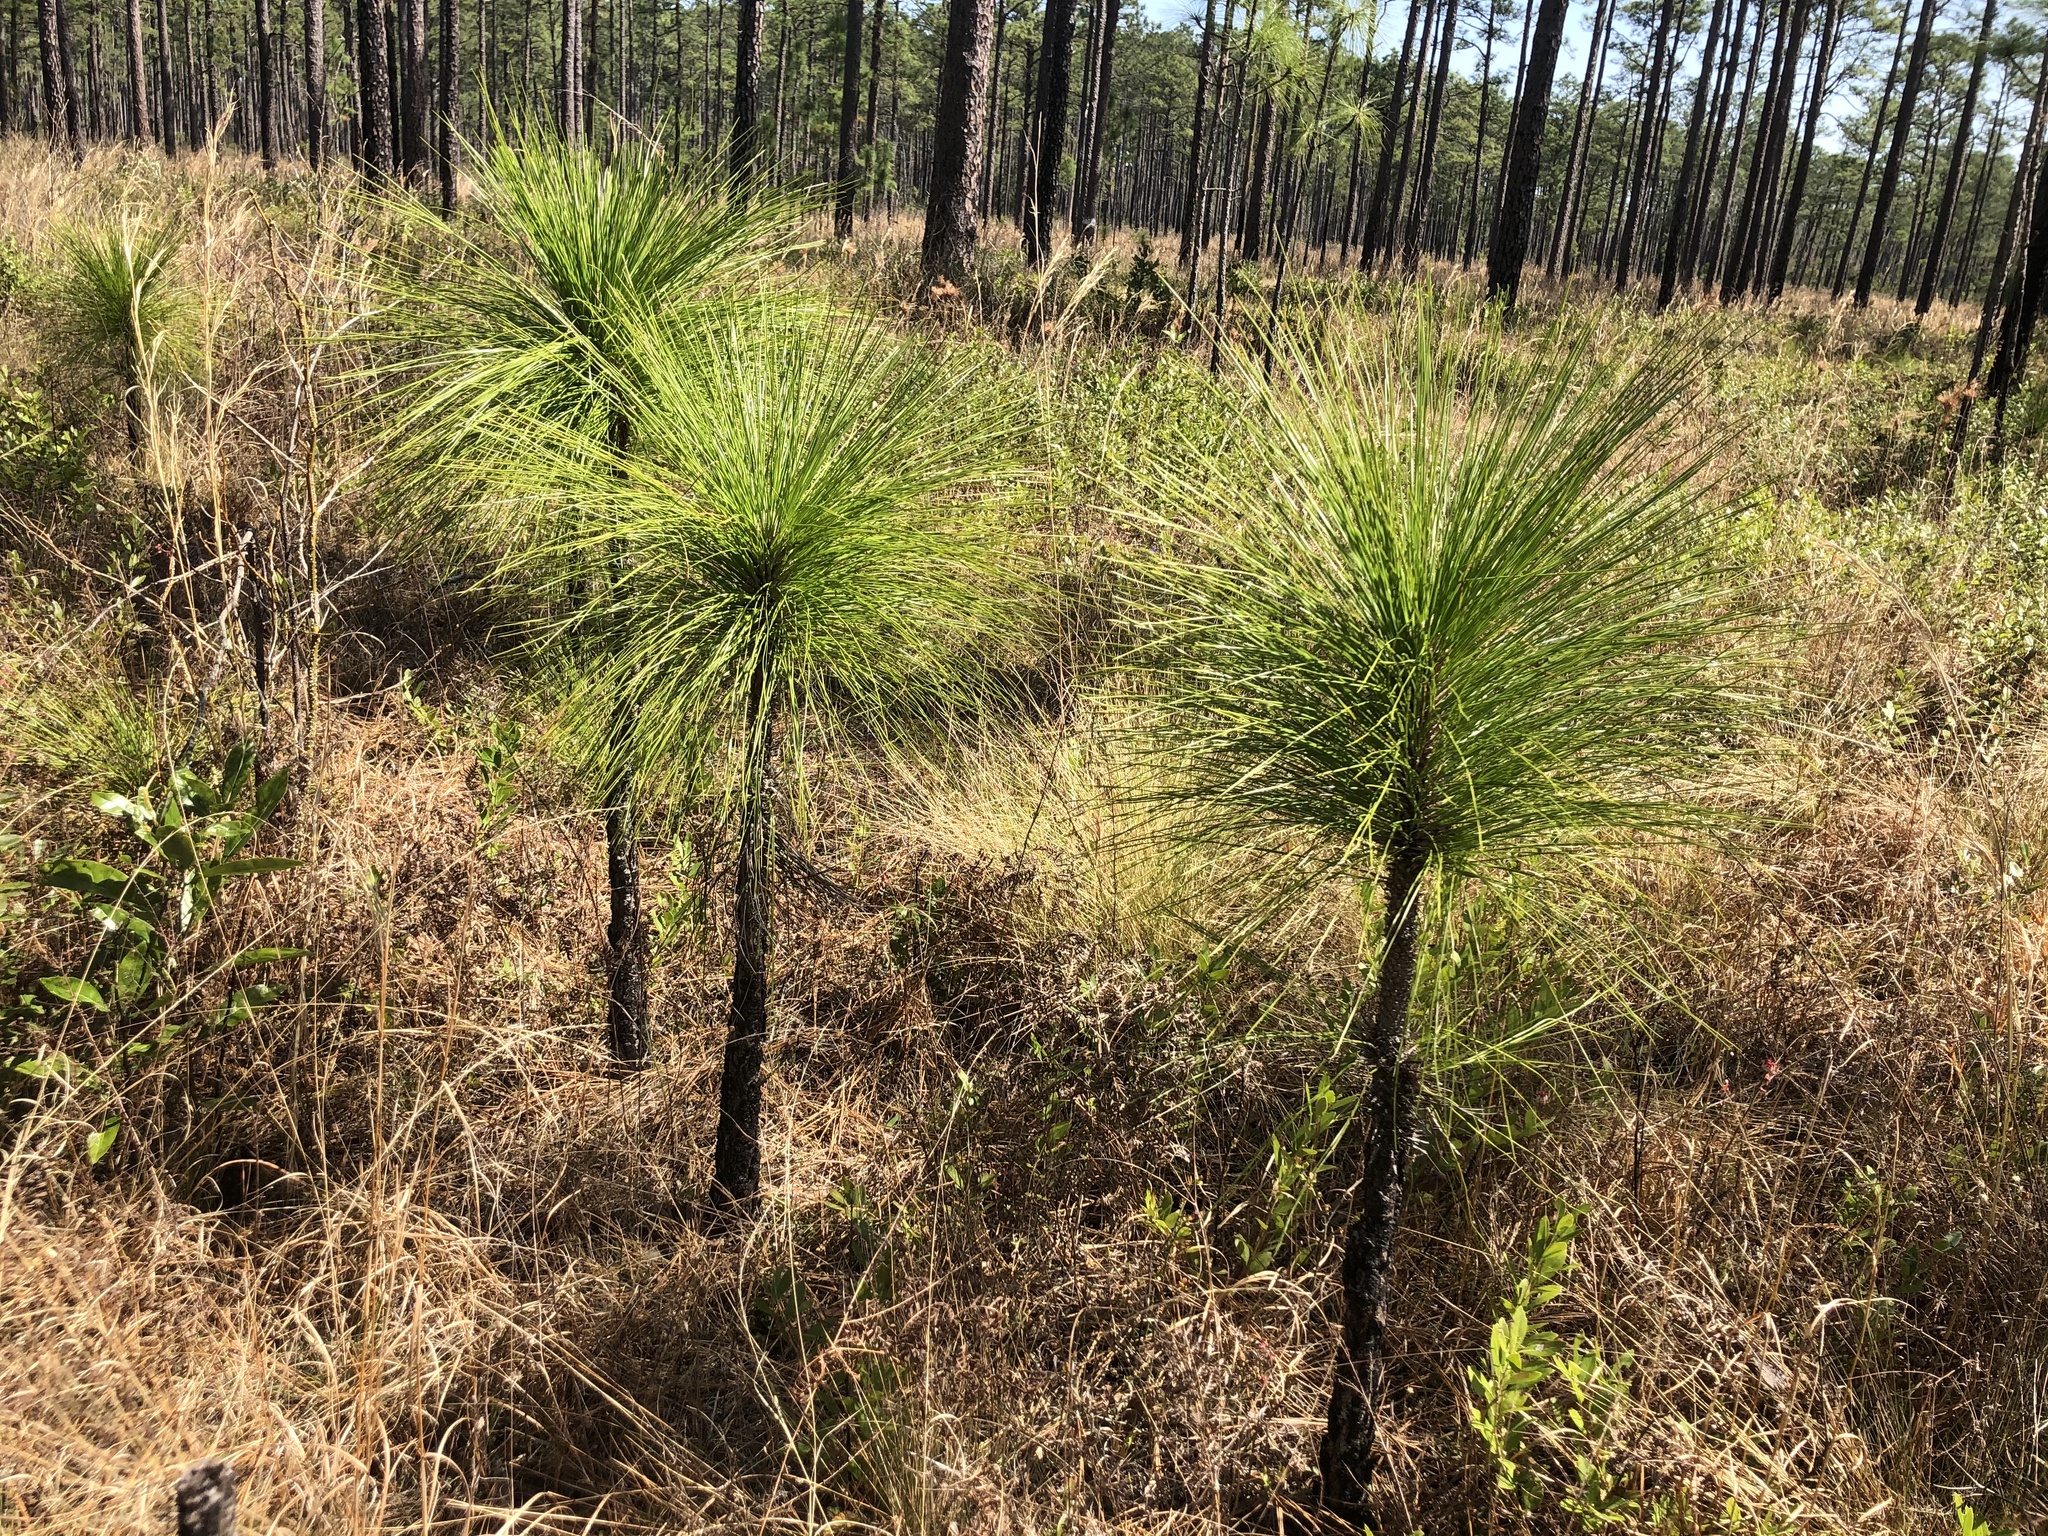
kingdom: Plantae
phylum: Tracheophyta
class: Pinopsida
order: Pinales
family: Pinaceae
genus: Pinus
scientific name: Pinus palustris
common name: Longleaf pine
